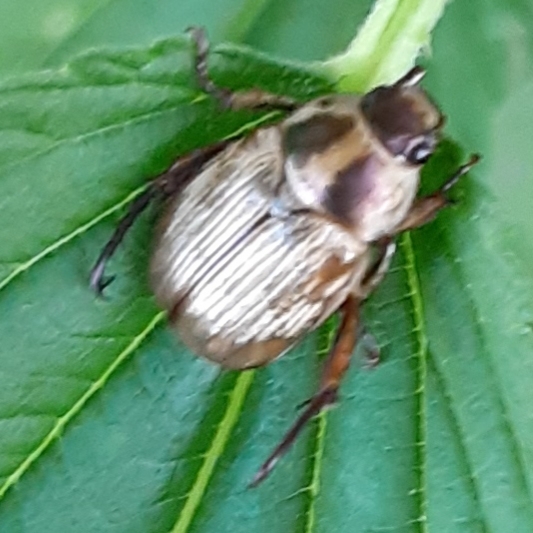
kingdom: Animalia
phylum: Arthropoda
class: Insecta
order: Coleoptera
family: Scarabaeidae
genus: Exomala
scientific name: Exomala orientalis
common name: Oriental beetle
